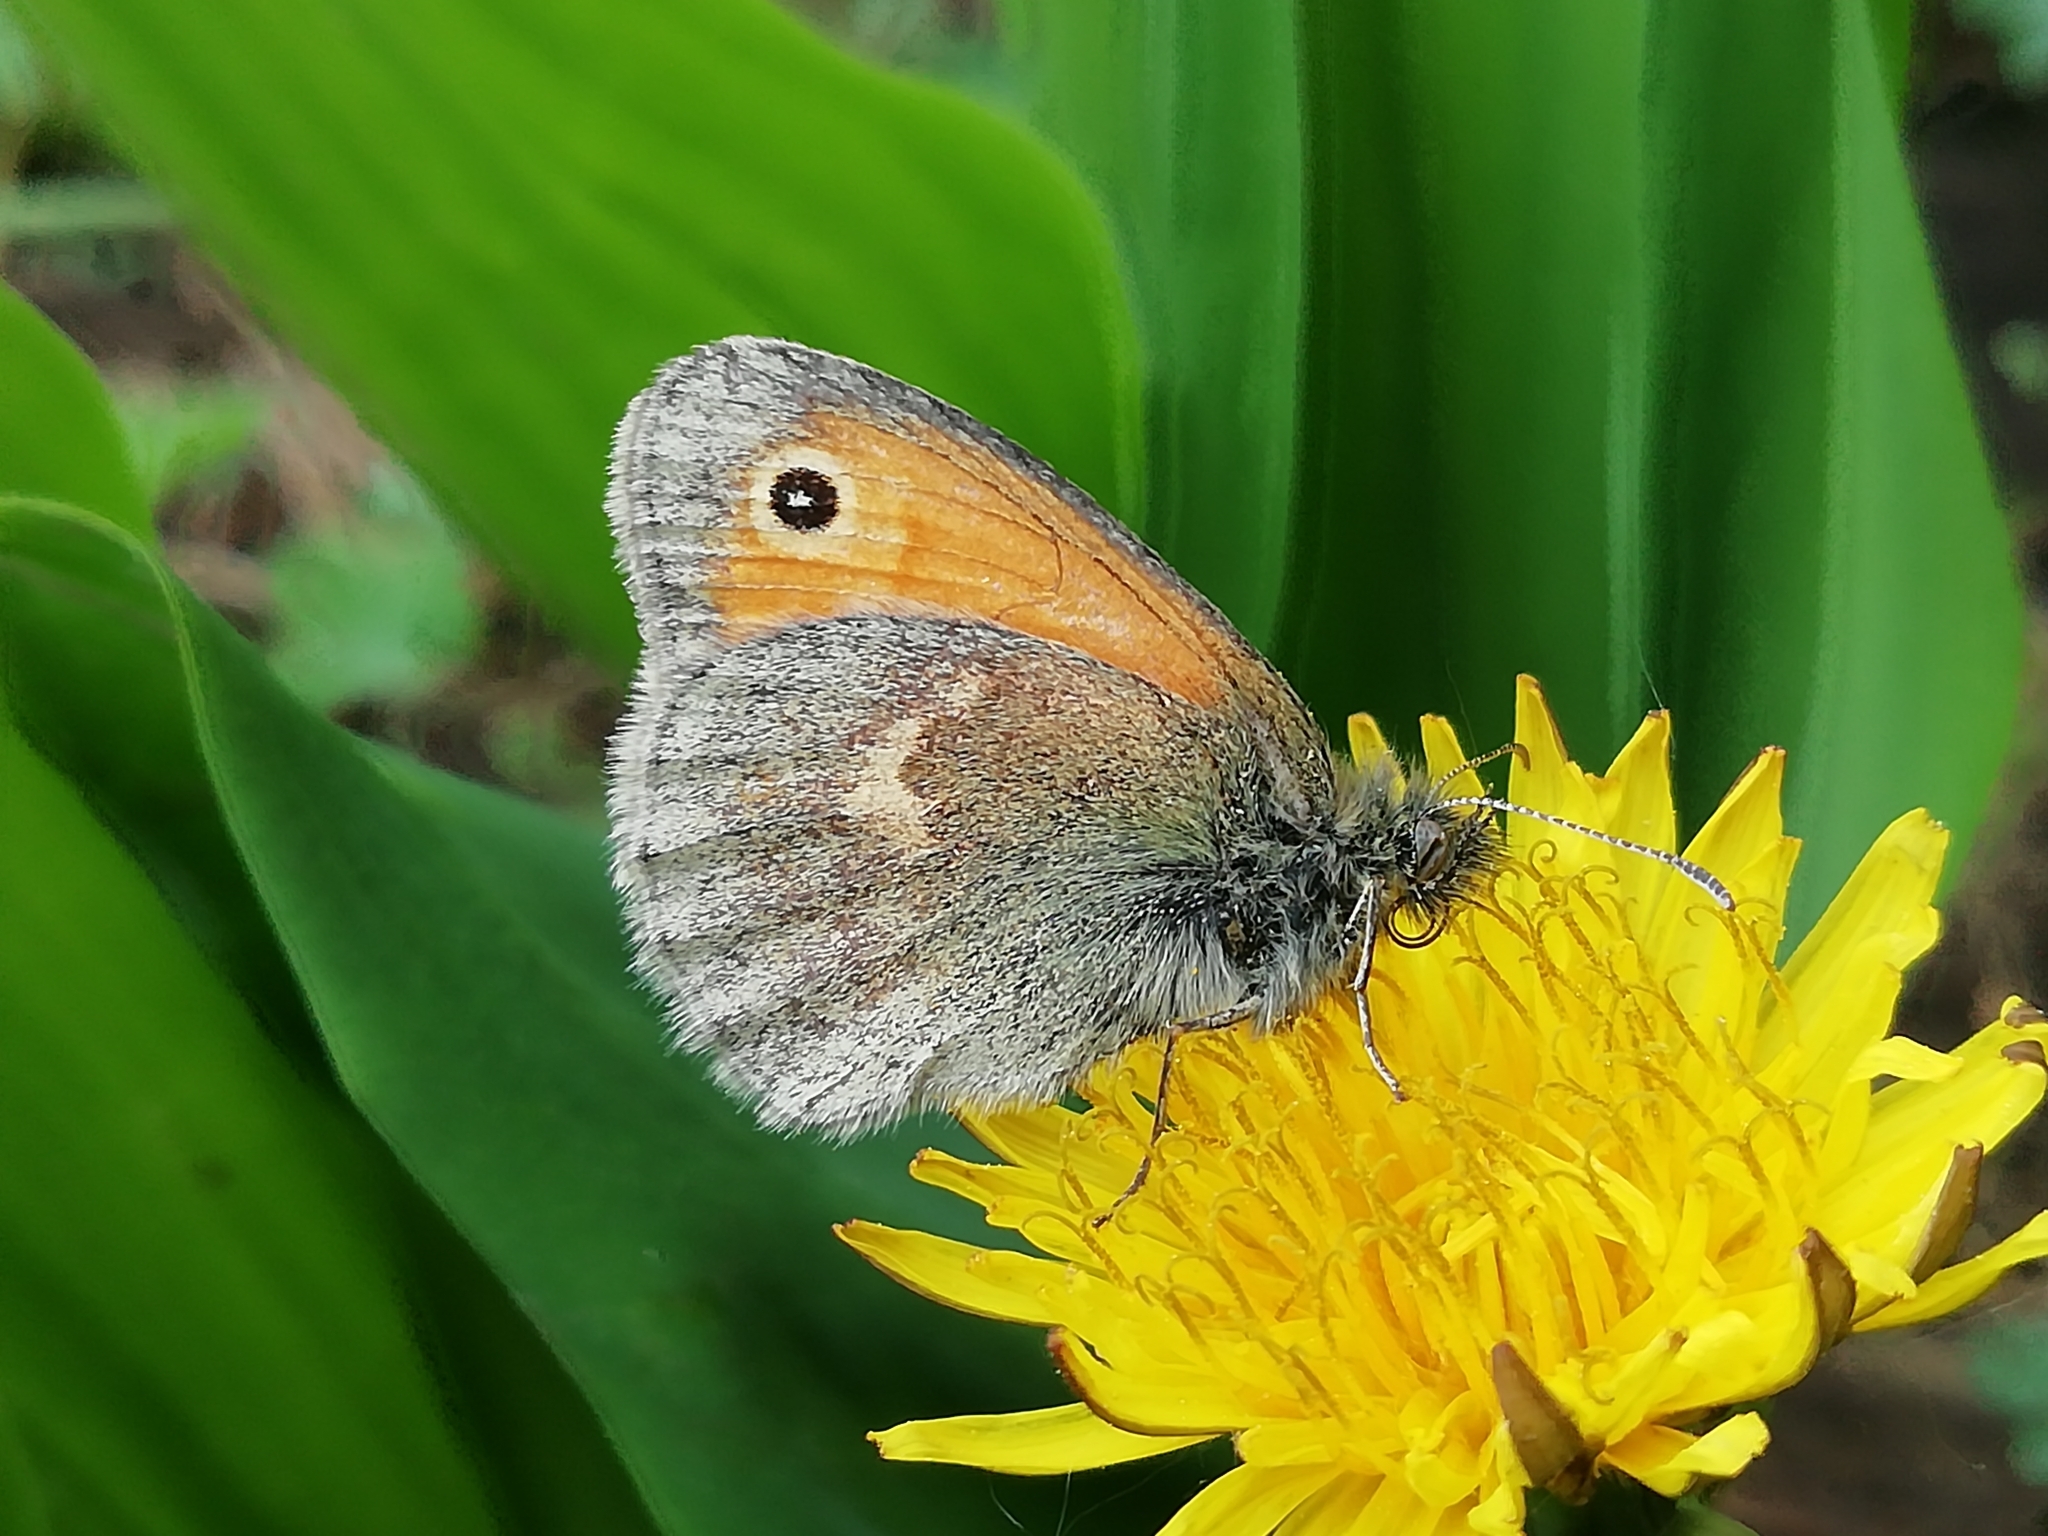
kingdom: Animalia
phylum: Arthropoda
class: Insecta
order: Lepidoptera
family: Nymphalidae
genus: Coenonympha
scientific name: Coenonympha pamphilus
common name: Small heath
